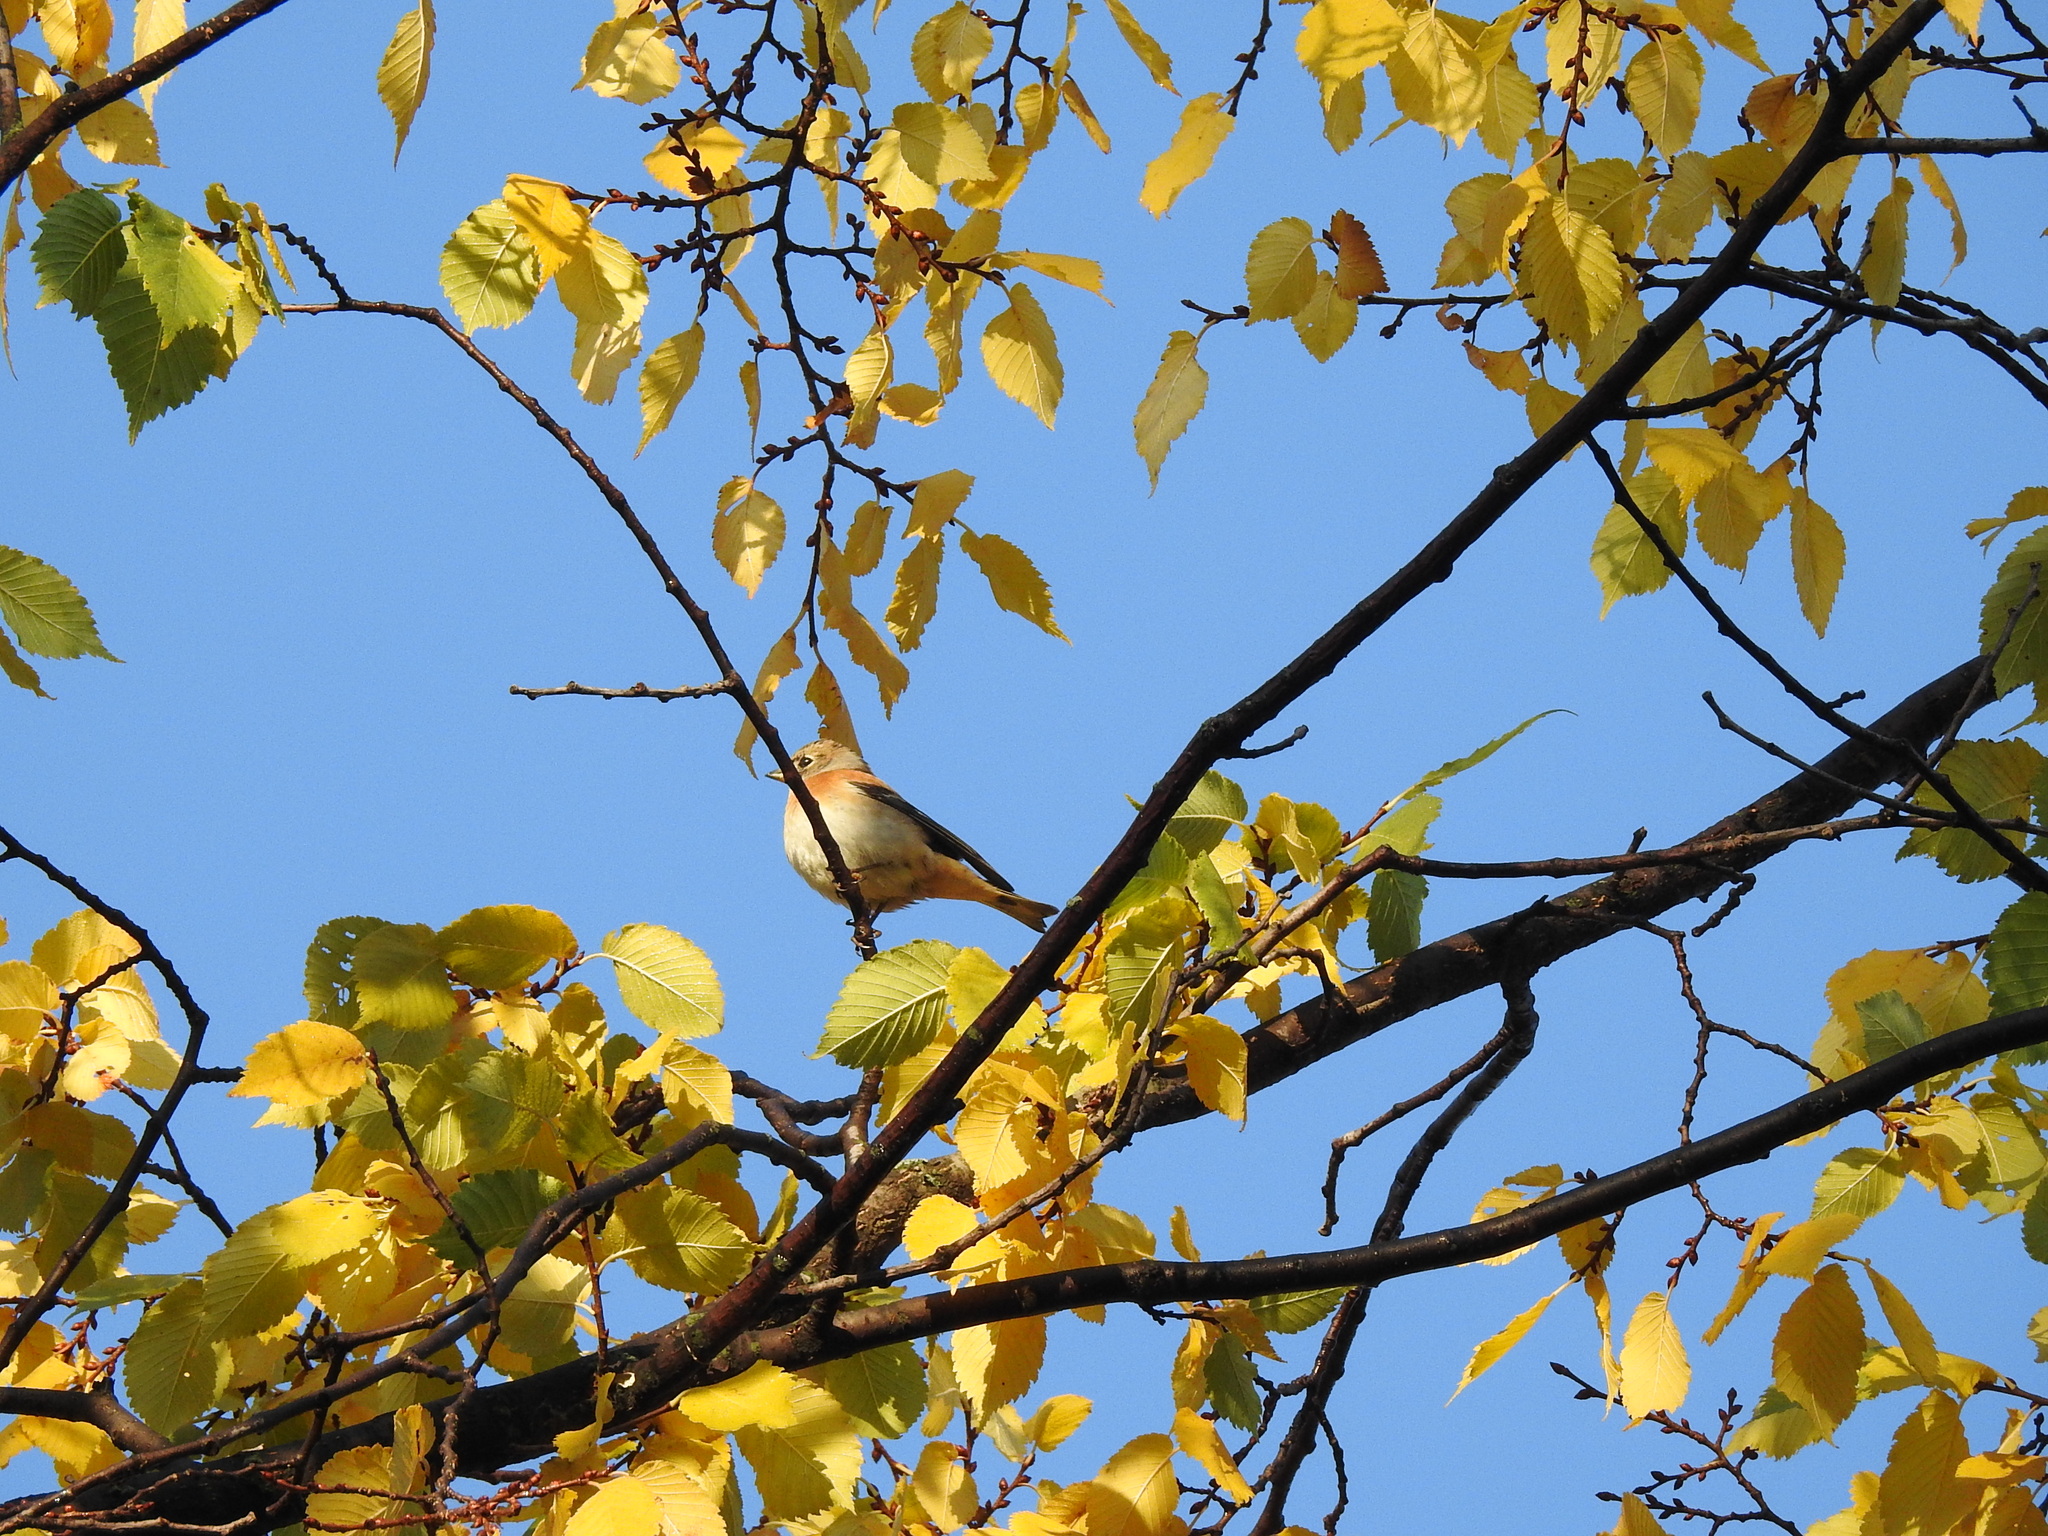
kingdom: Animalia
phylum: Chordata
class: Aves
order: Passeriformes
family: Fringillidae
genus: Fringilla
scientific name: Fringilla montifringilla
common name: Brambling
